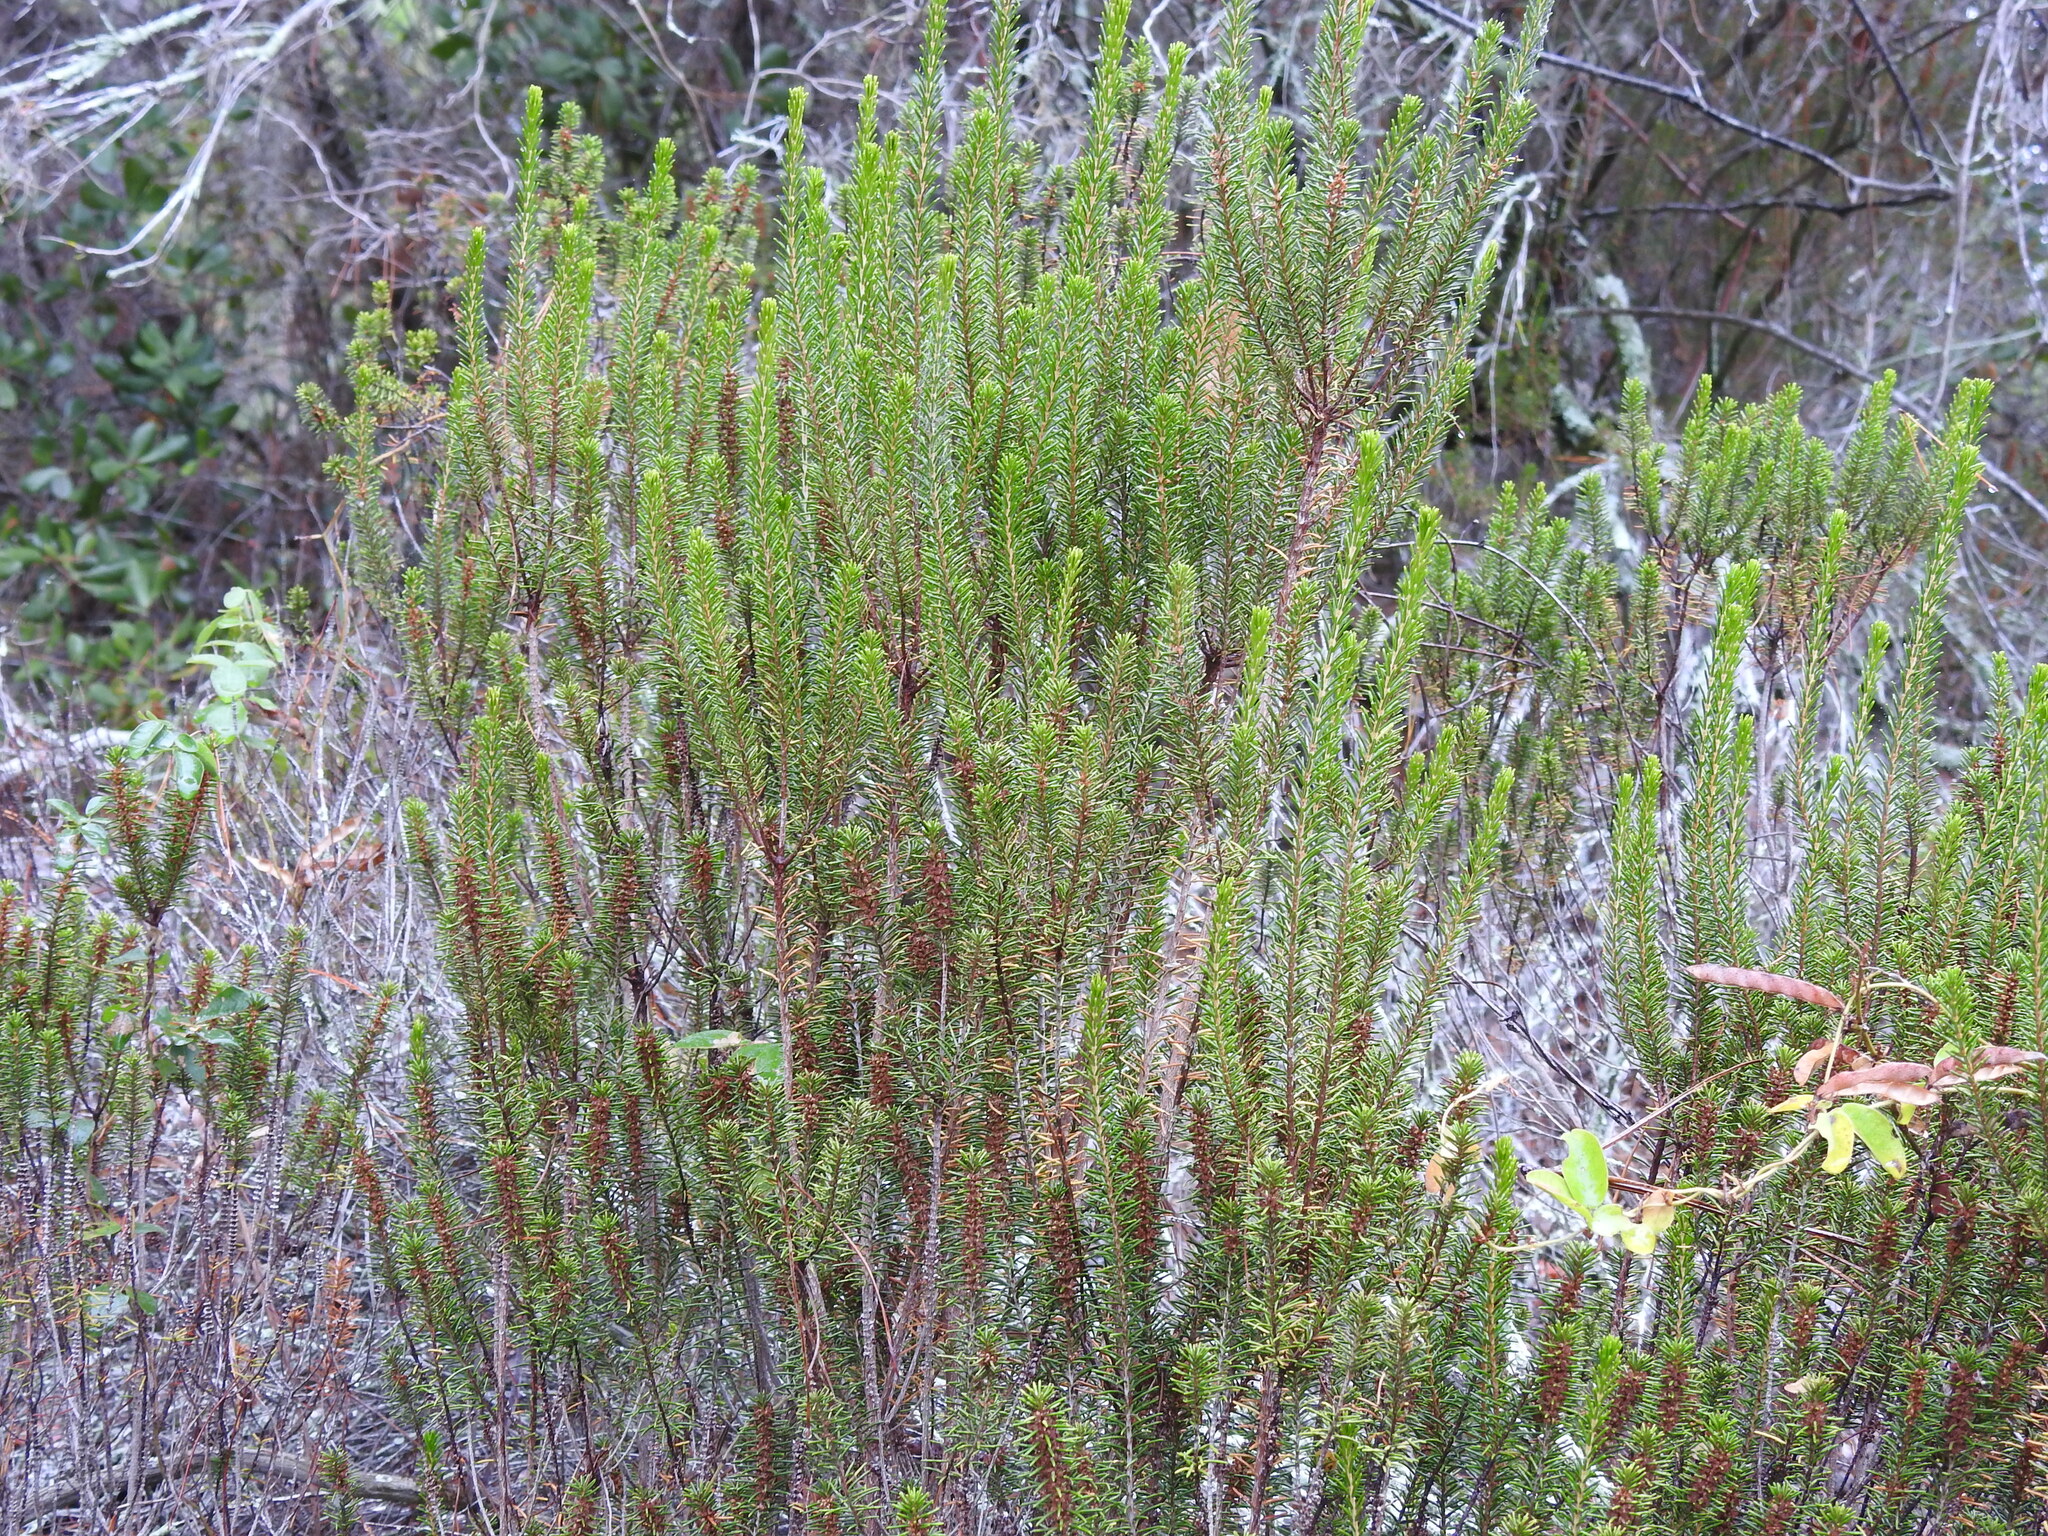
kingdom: Plantae
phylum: Tracheophyta
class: Magnoliopsida
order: Ericales
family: Ericaceae
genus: Ceratiola
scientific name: Ceratiola ericoides
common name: Sandhill-rosemary
